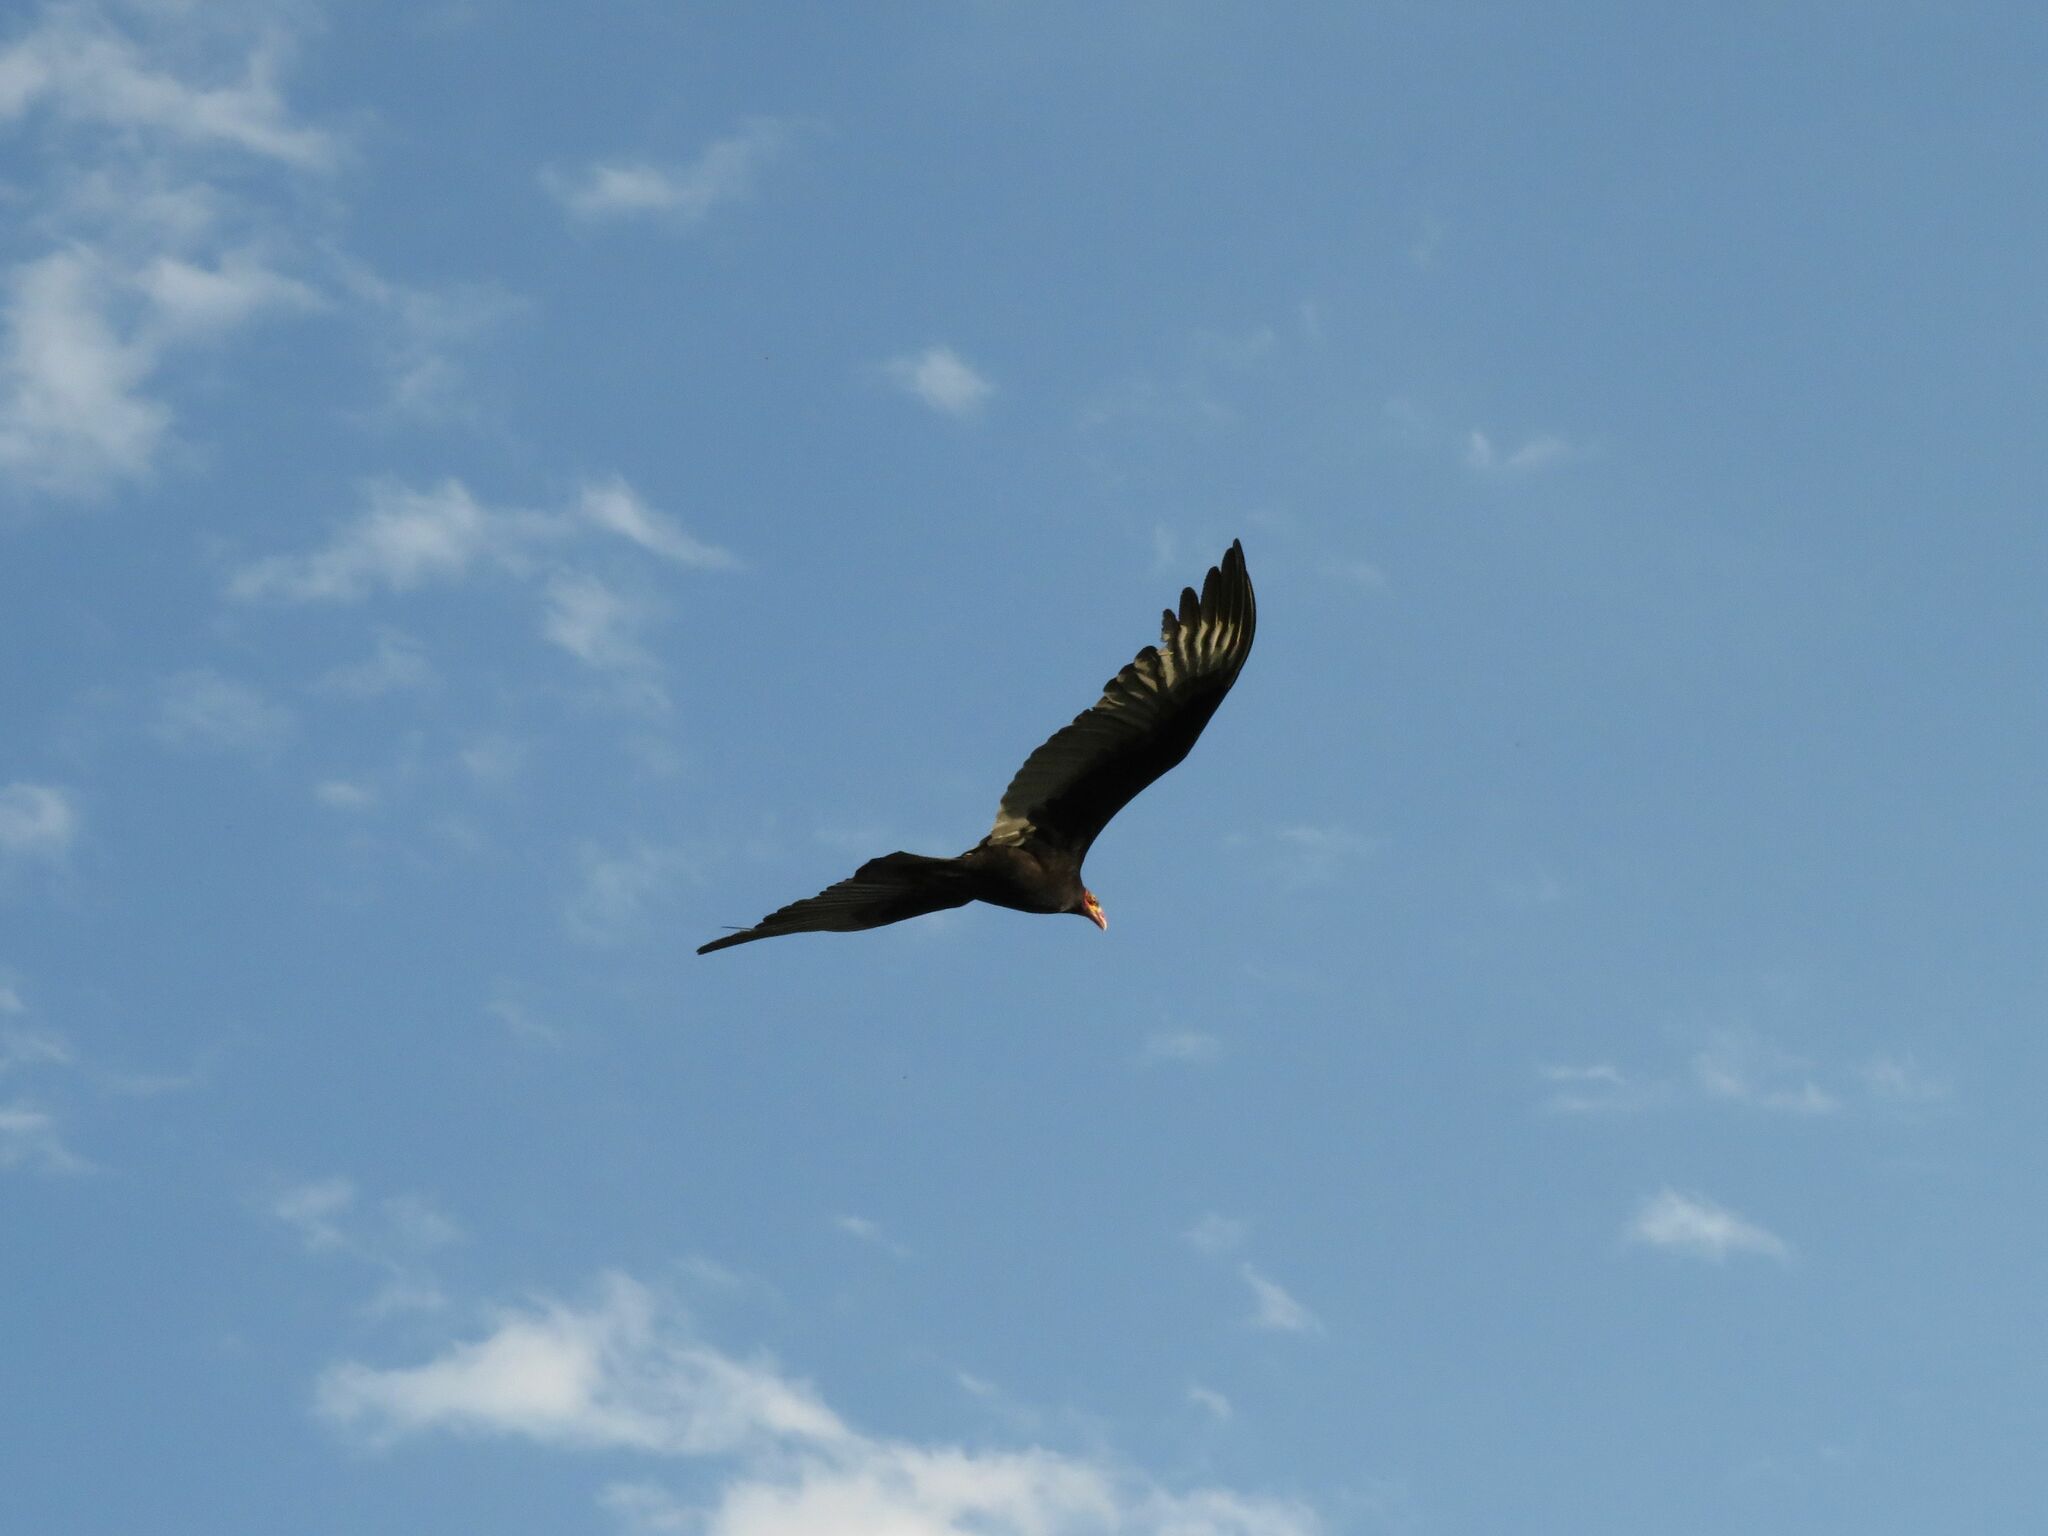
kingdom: Animalia
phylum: Chordata
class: Aves
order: Accipitriformes
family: Cathartidae
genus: Cathartes
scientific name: Cathartes burrovianus
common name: Lesser yellow-headed vulture
